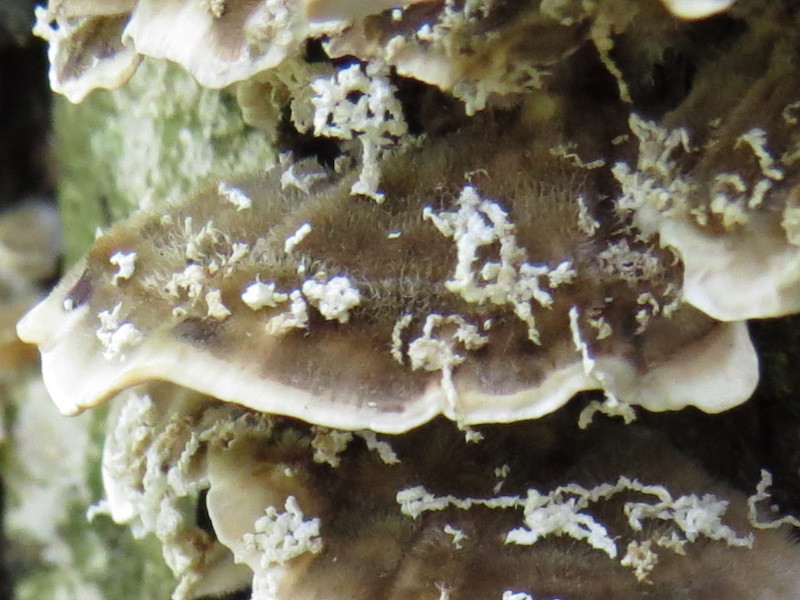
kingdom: Fungi
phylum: Basidiomycota
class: Agaricomycetes
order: Polyporales
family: Polyporaceae
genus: Trametes
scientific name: Trametes versicolor
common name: Turkeytail
